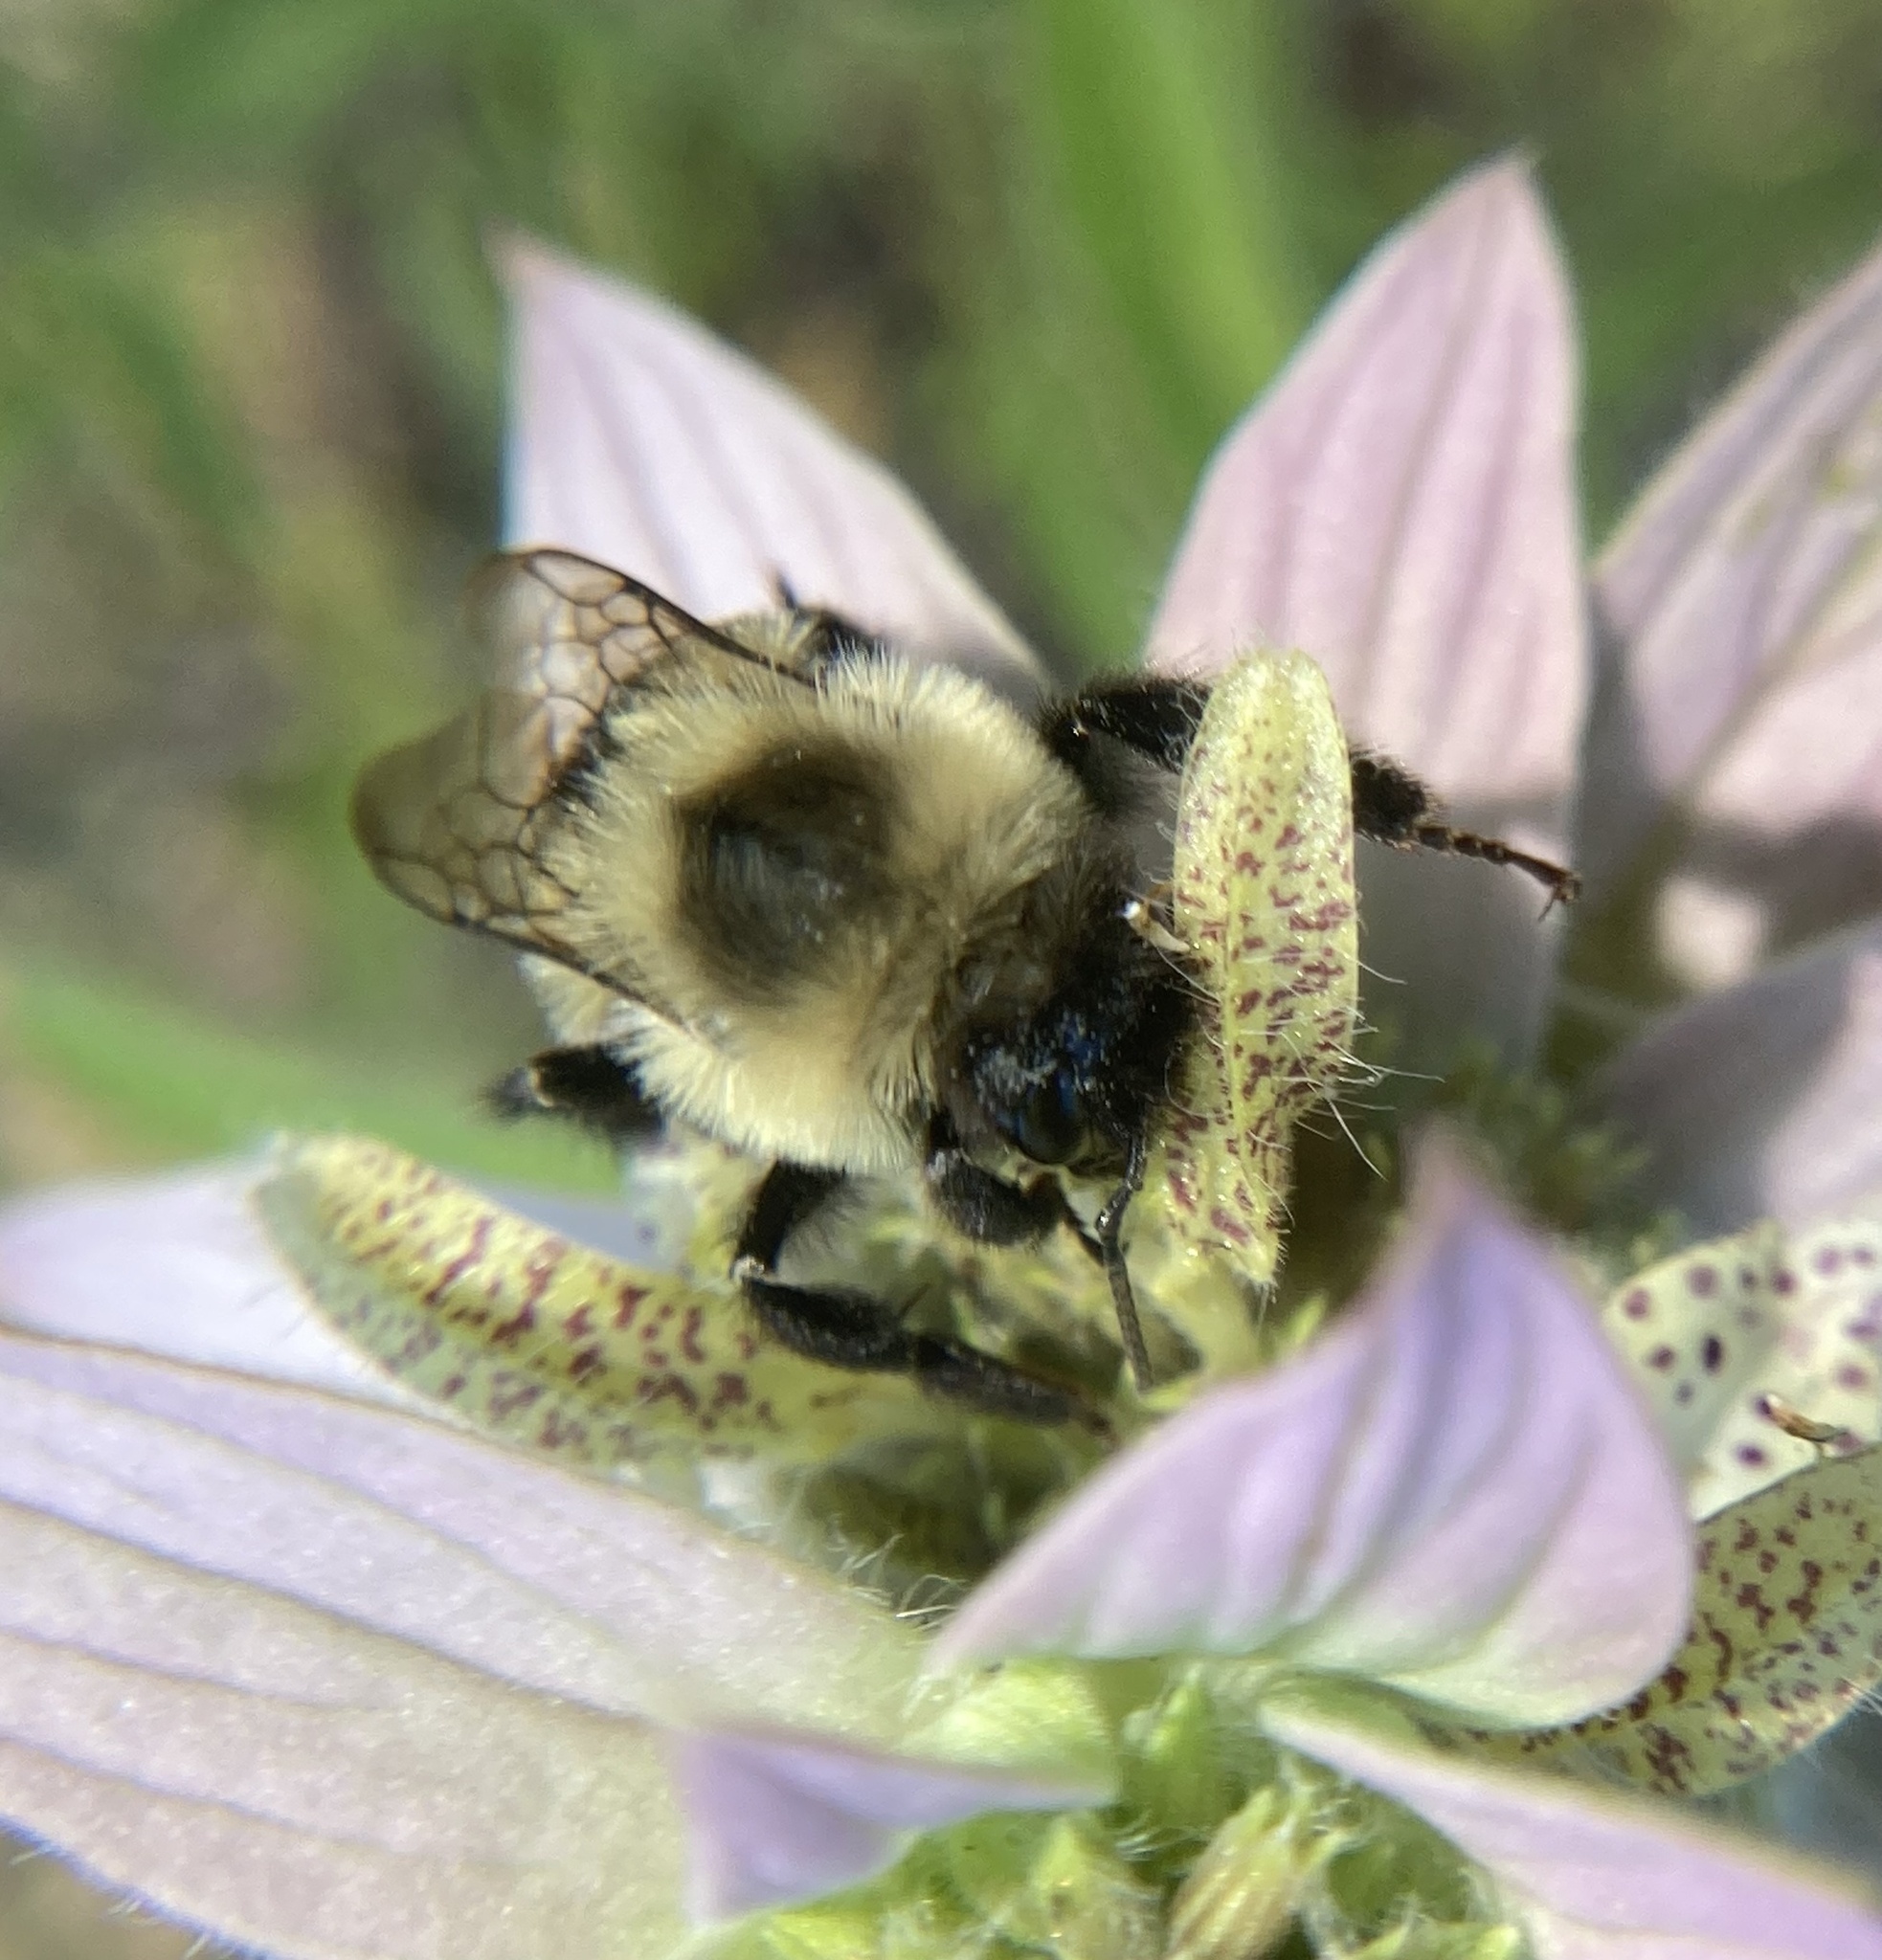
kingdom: Animalia
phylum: Arthropoda
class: Insecta
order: Hymenoptera
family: Apidae
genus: Bombus
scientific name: Bombus impatiens
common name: Common eastern bumble bee
